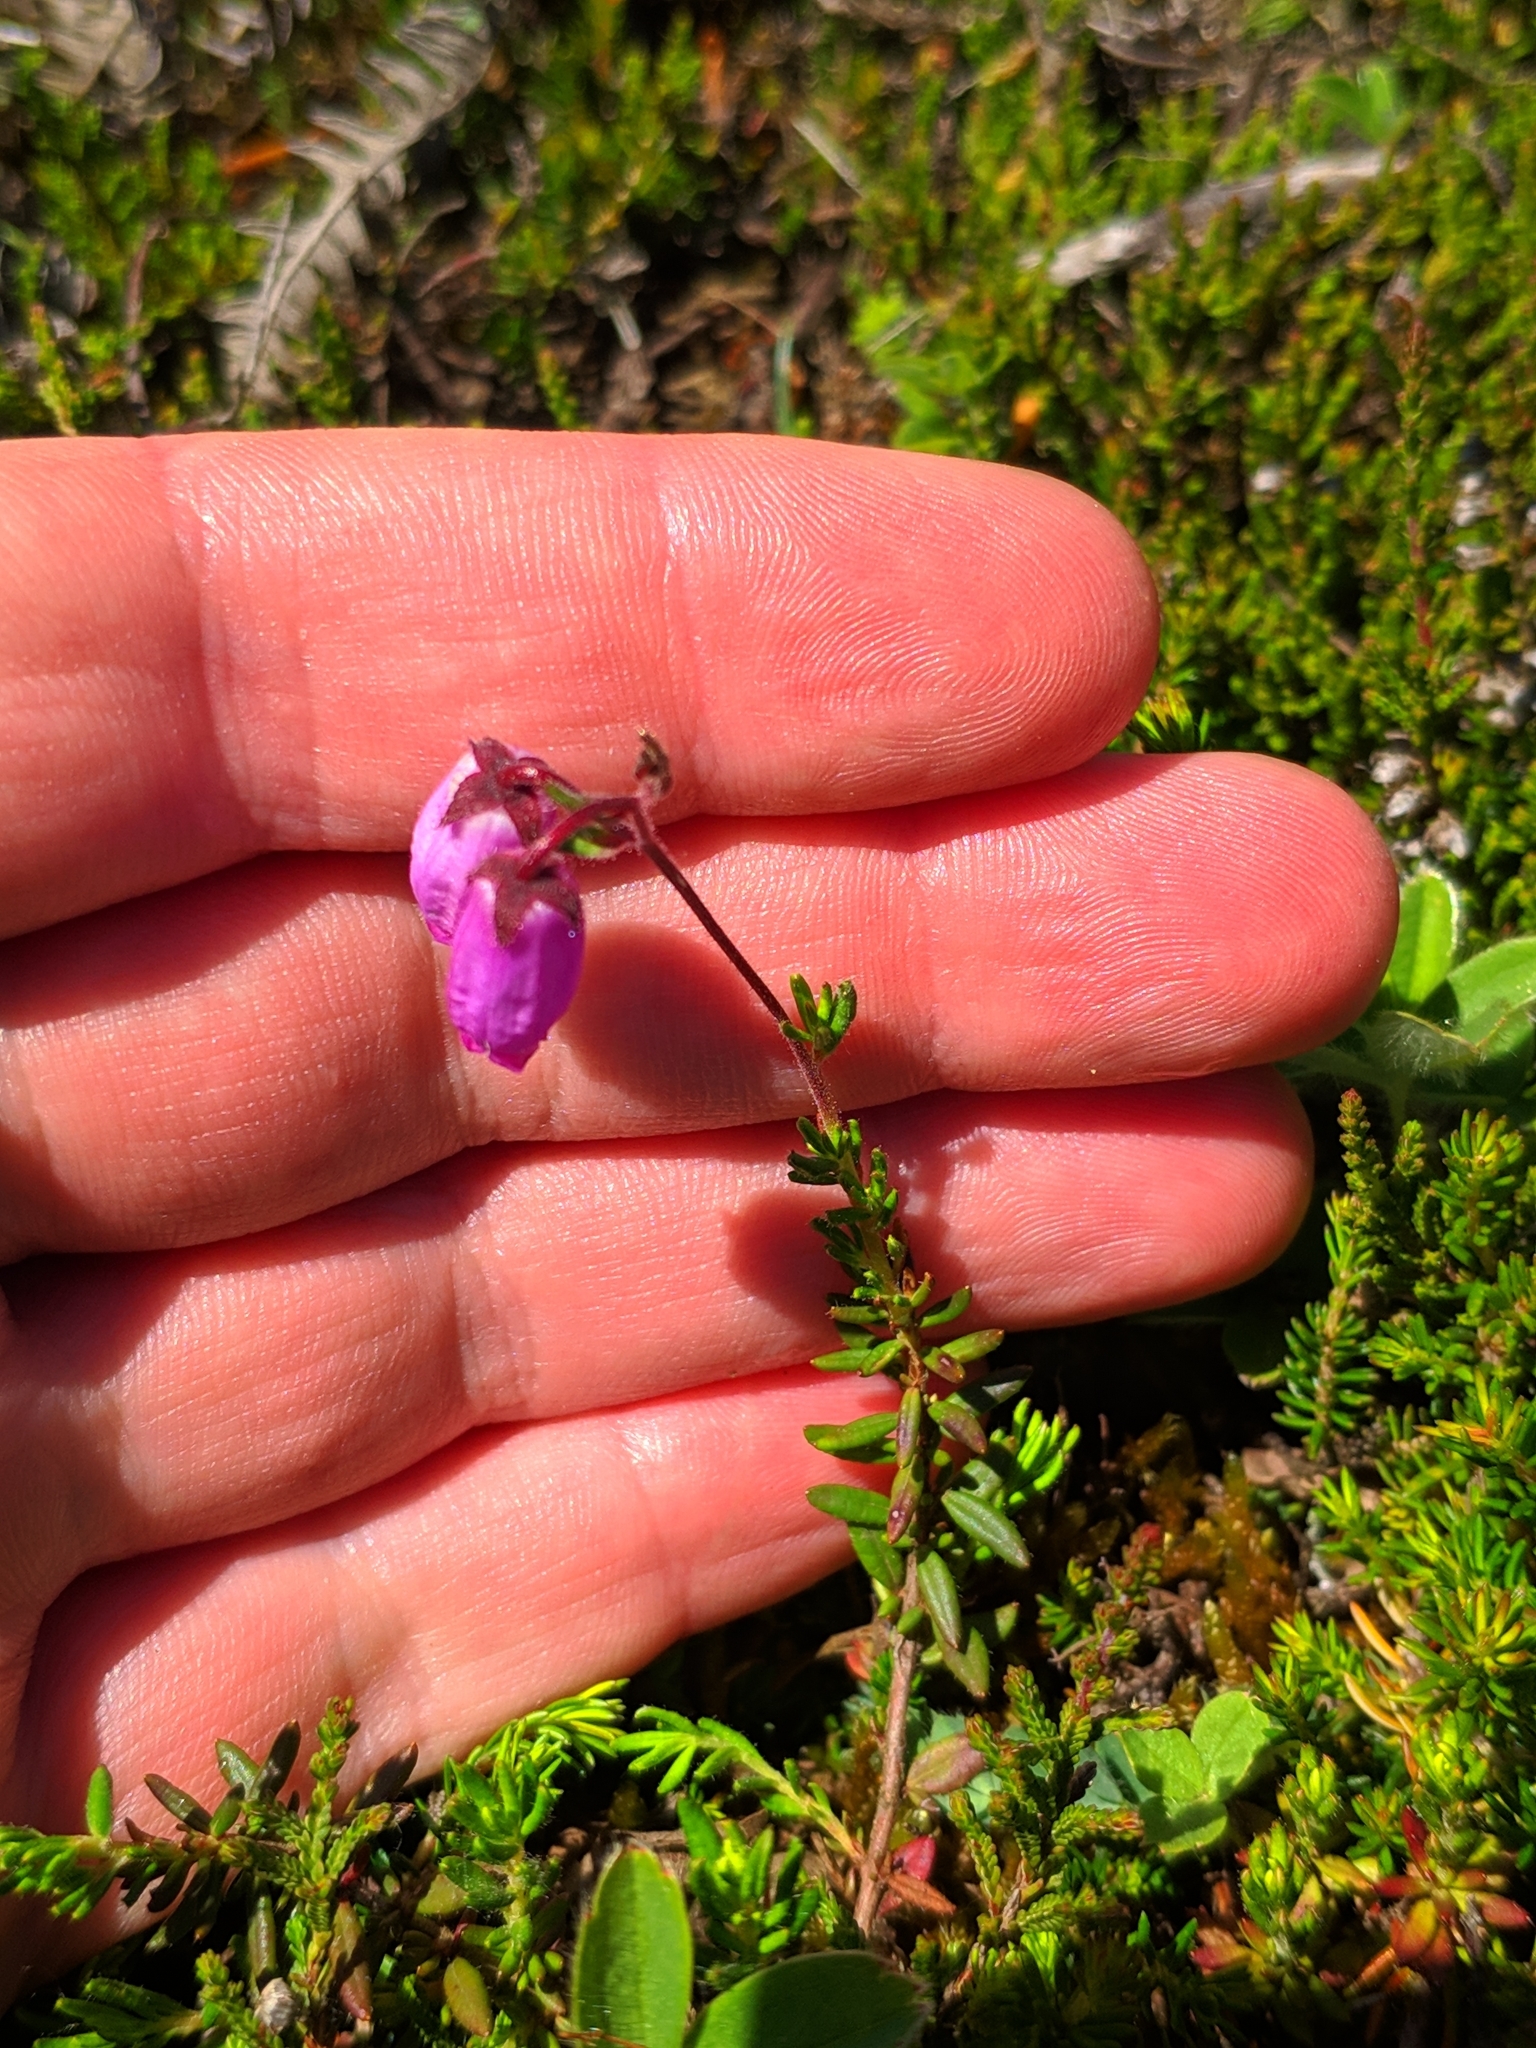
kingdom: Plantae
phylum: Tracheophyta
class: Magnoliopsida
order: Ericales
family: Ericaceae
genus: Daboecia
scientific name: Daboecia cantabrica
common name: St. dabeoc's-heath
